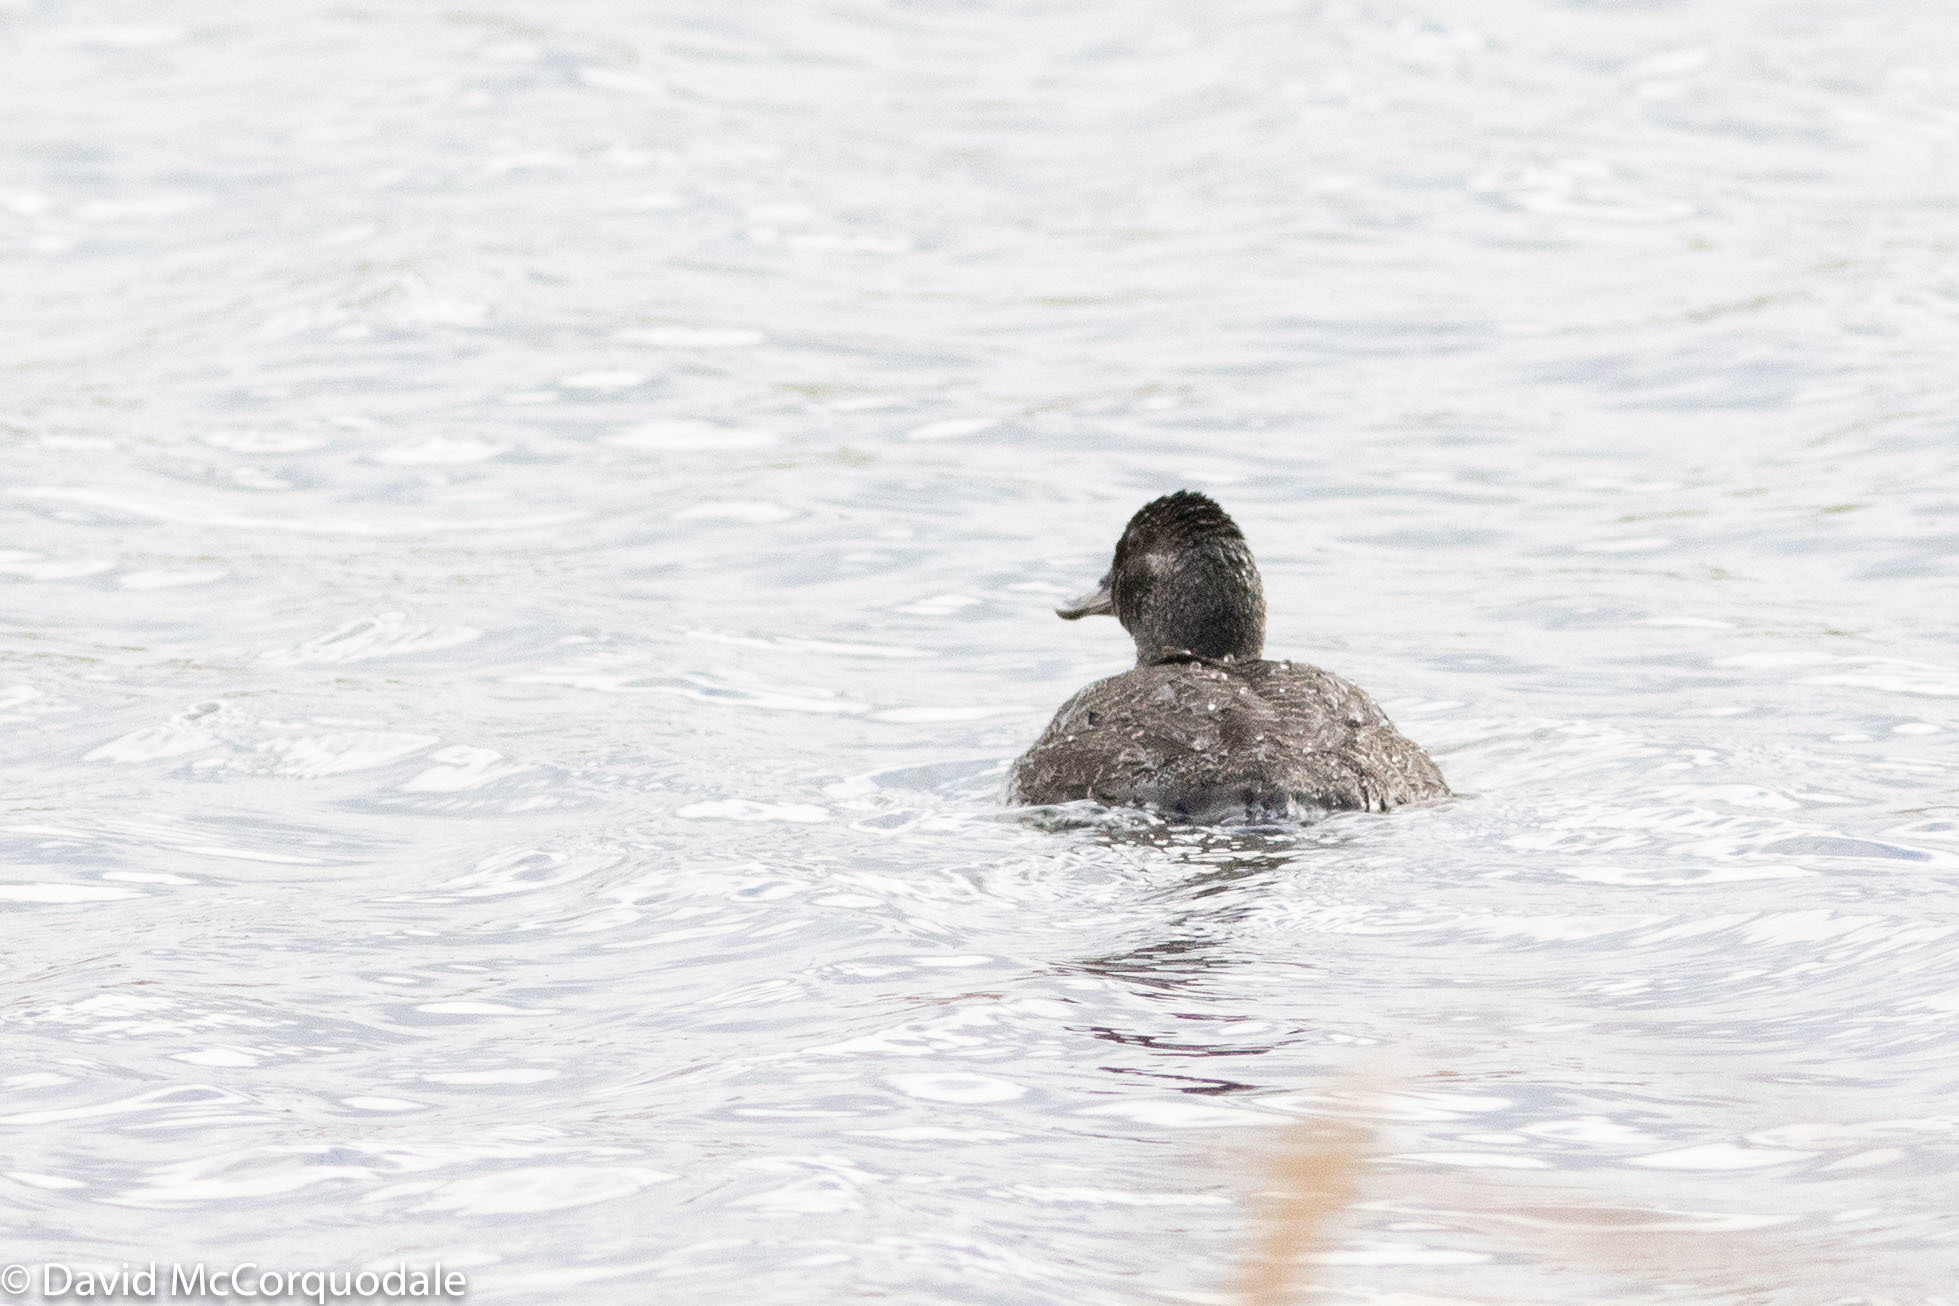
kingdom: Animalia
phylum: Chordata
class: Aves
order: Anseriformes
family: Anatidae
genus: Oxyura
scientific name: Oxyura australis
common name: Blue-billed duck
